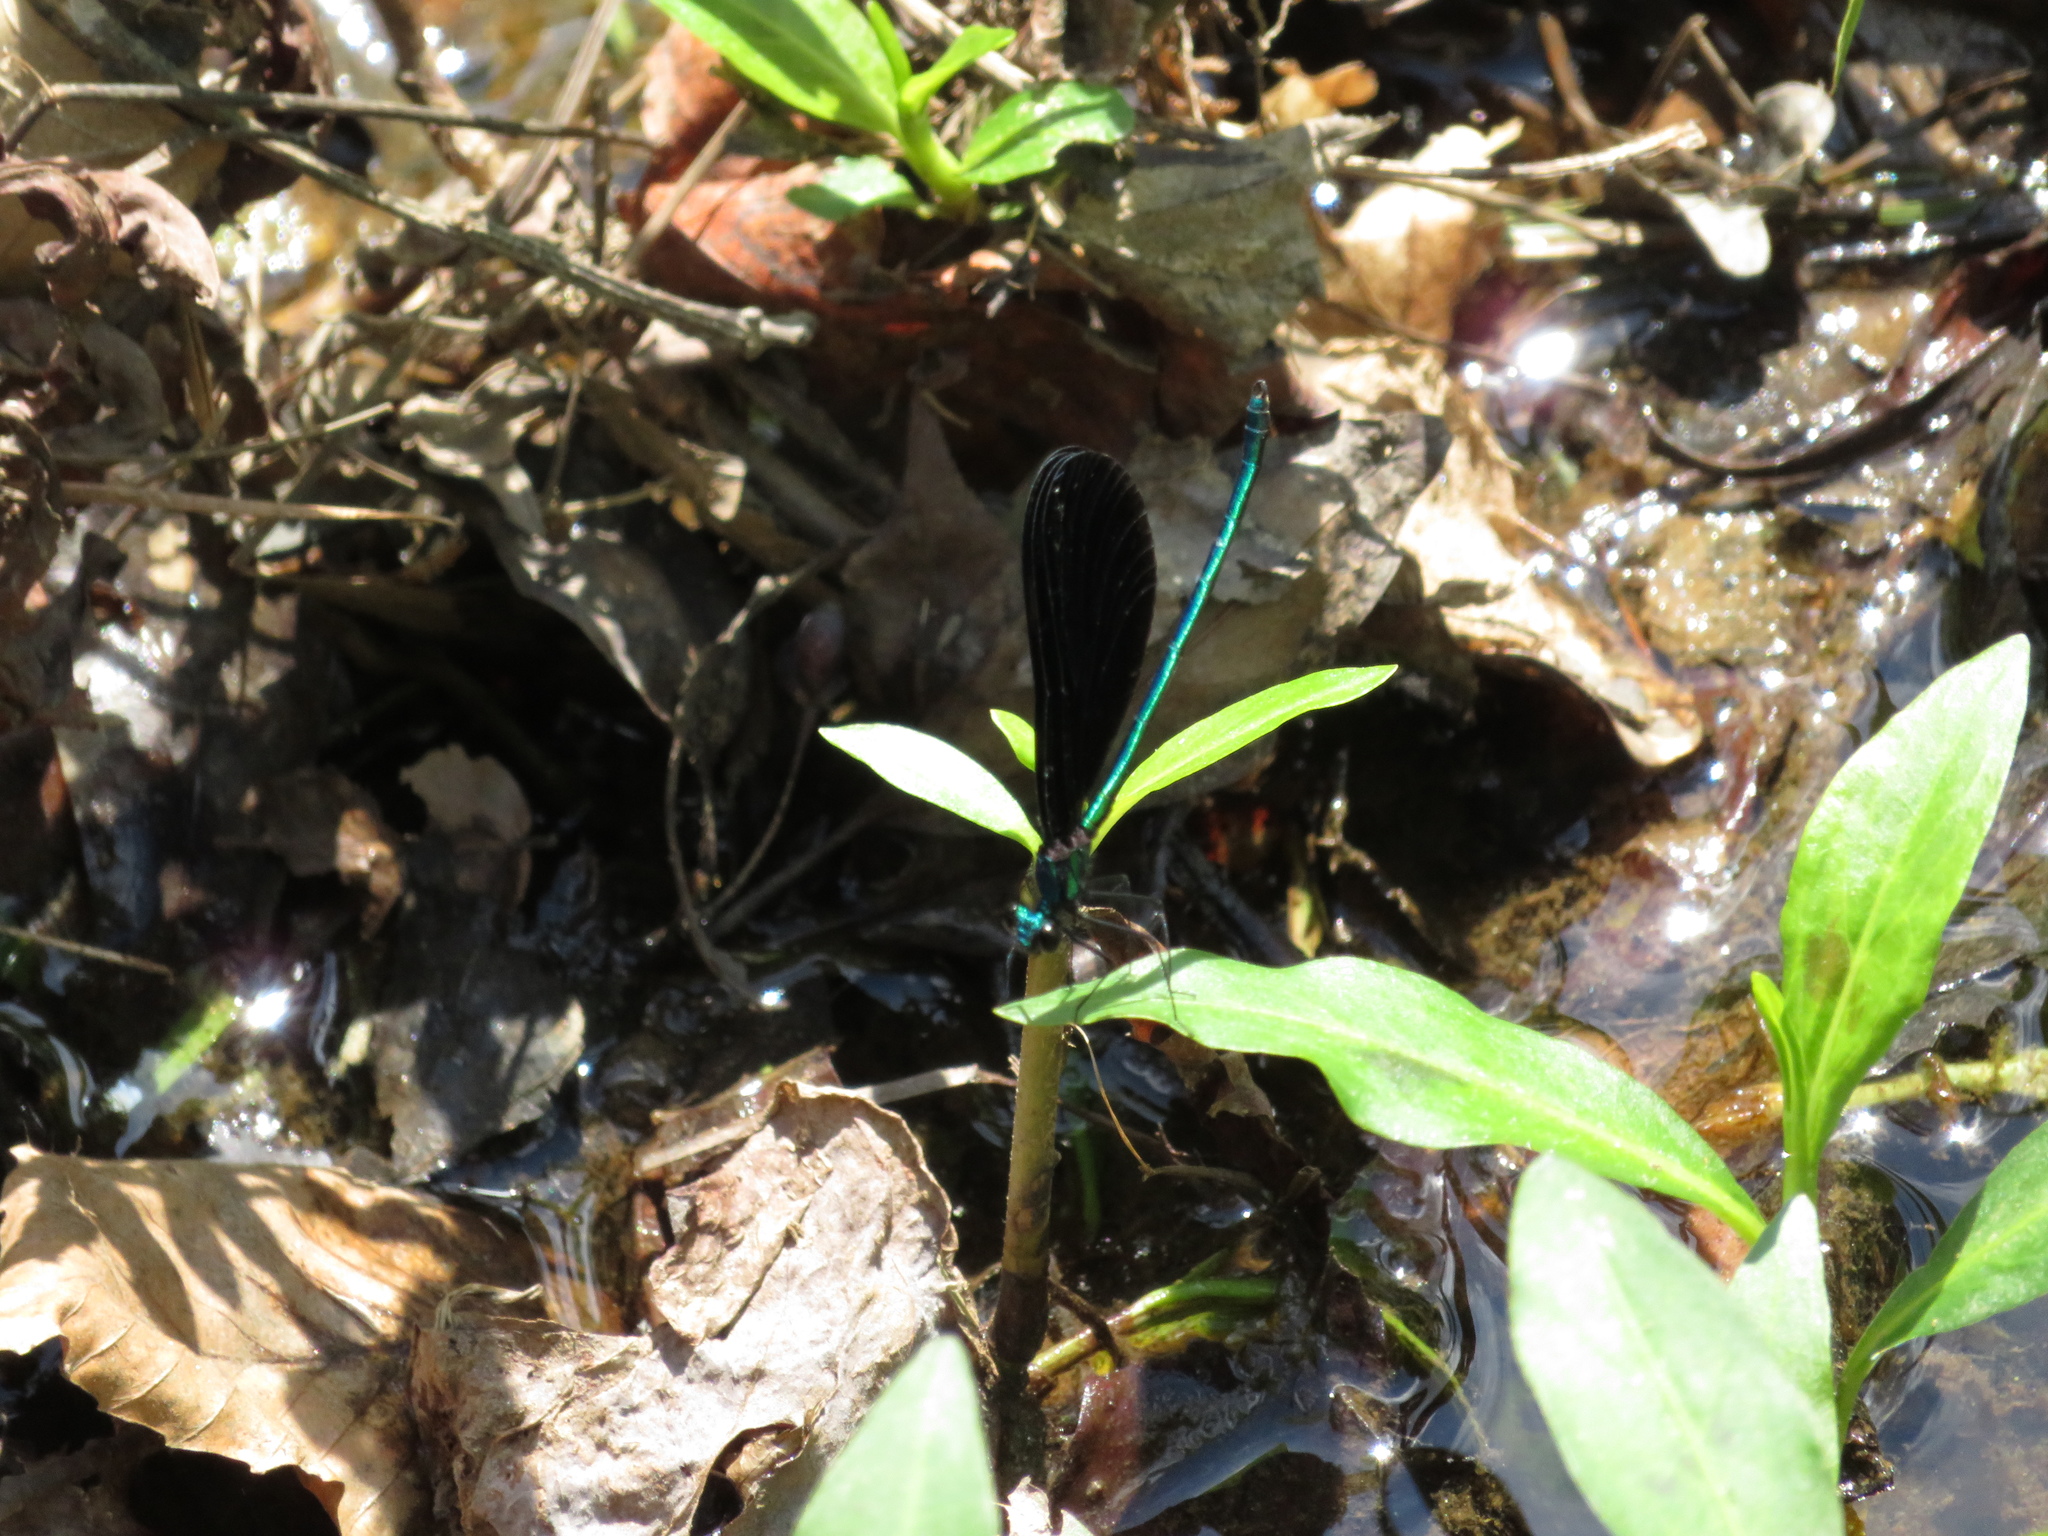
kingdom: Animalia
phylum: Arthropoda
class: Insecta
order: Odonata
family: Calopterygidae
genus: Calopteryx
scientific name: Calopteryx maculata
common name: Ebony jewelwing
